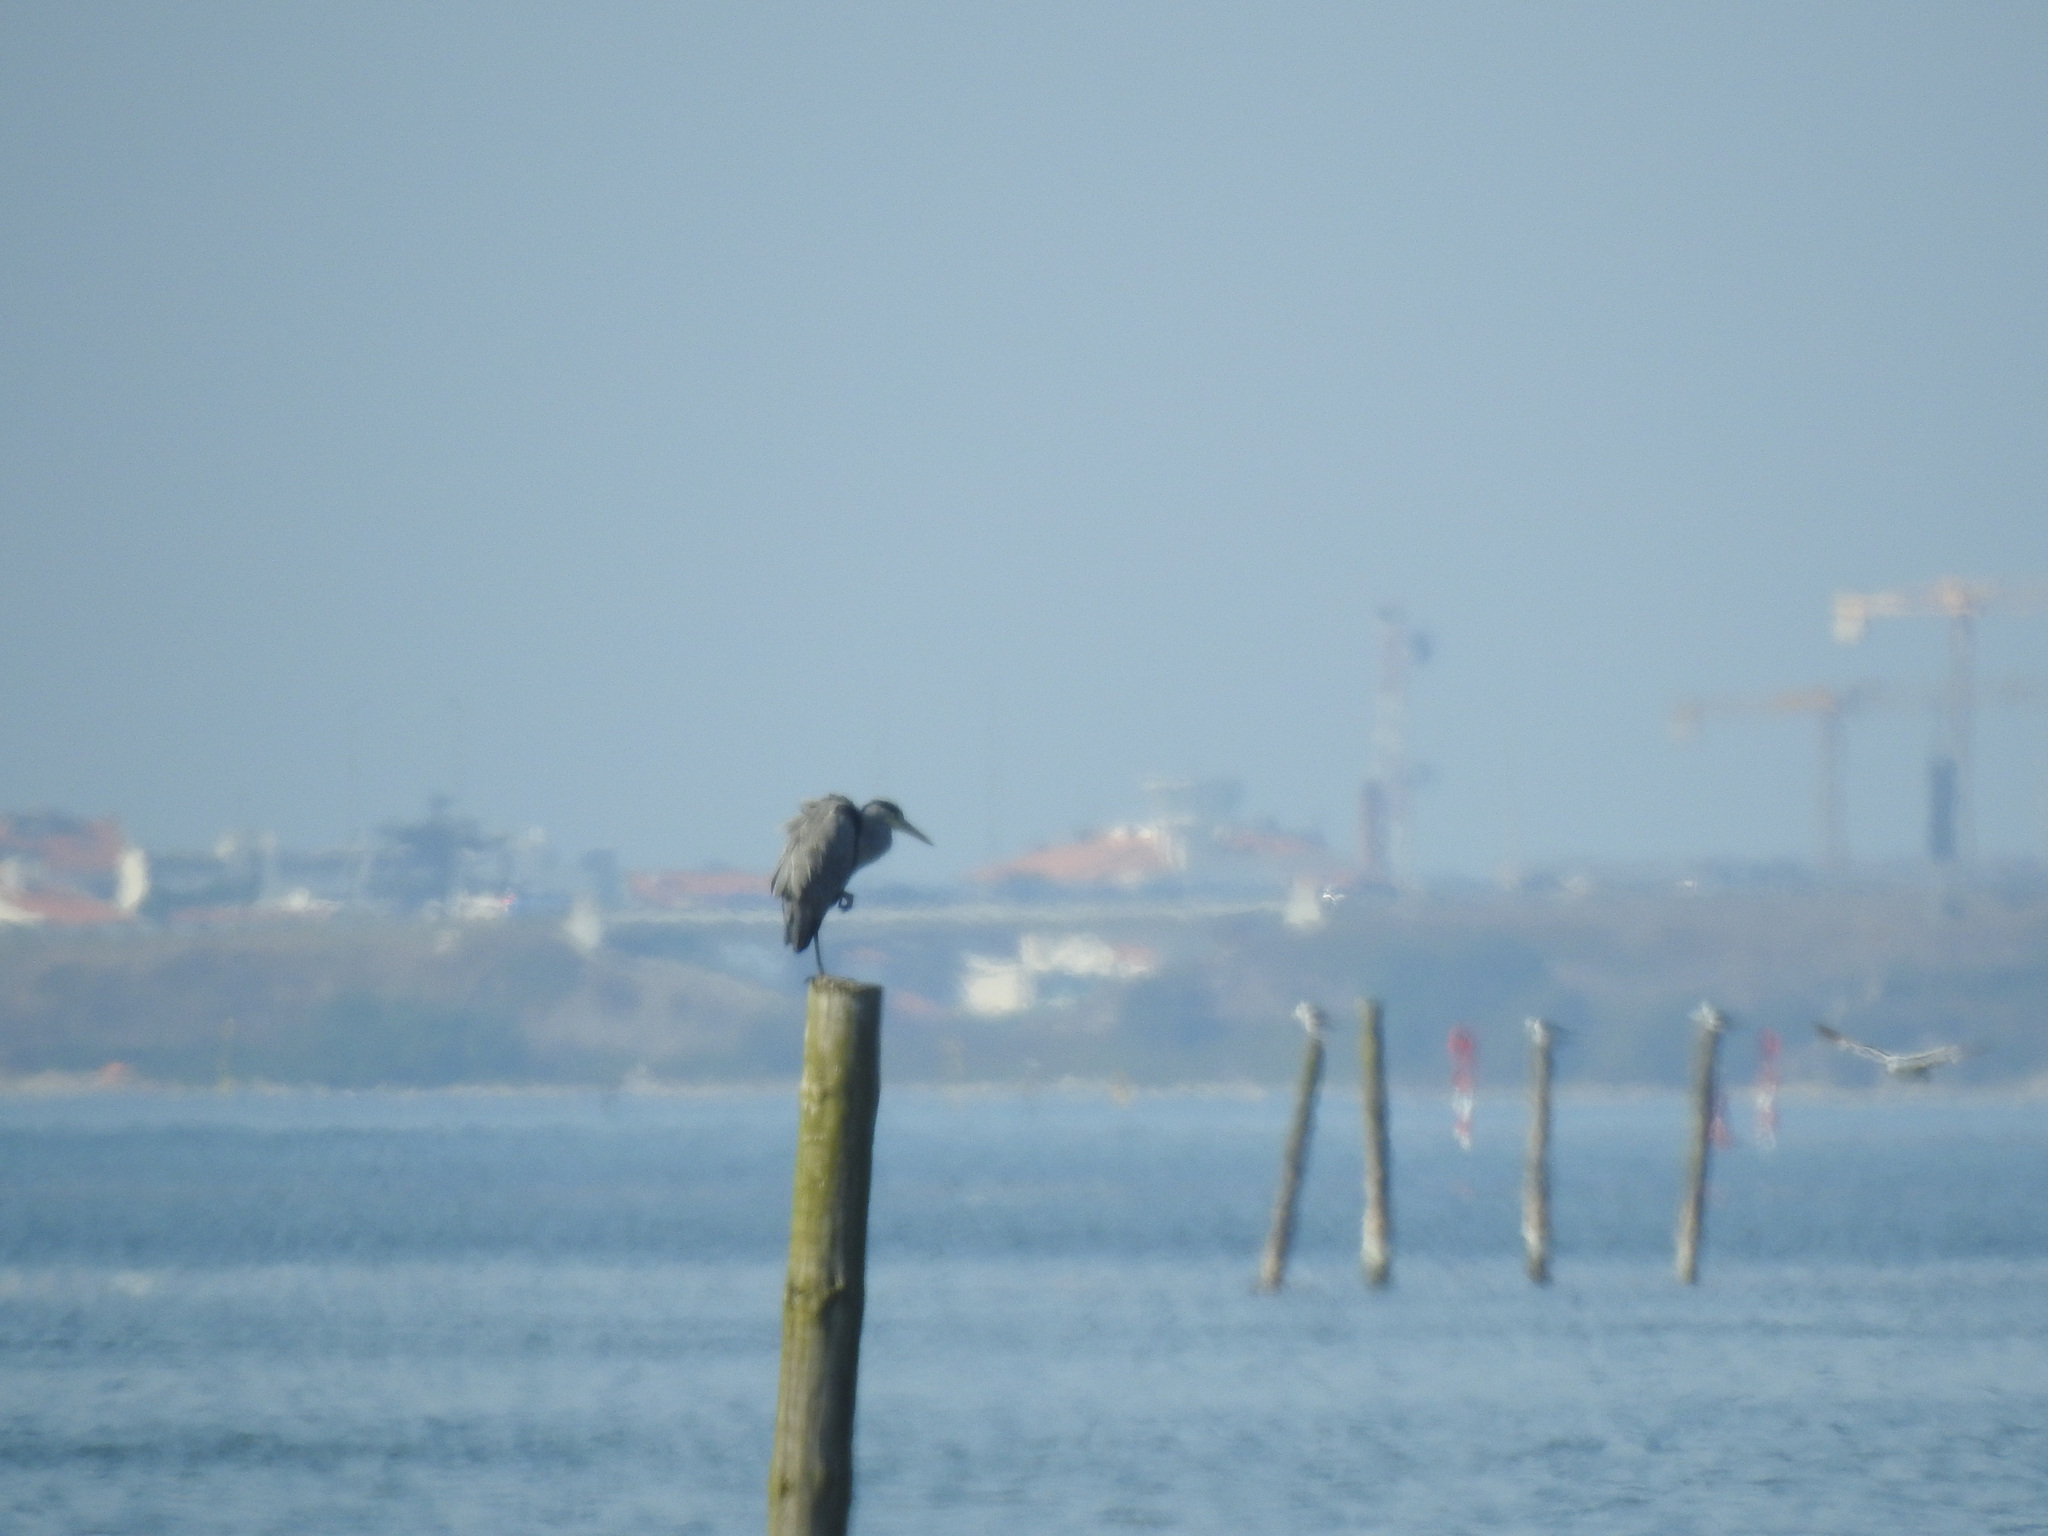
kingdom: Animalia
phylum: Chordata
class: Aves
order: Pelecaniformes
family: Ardeidae
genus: Ardea
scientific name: Ardea cinerea
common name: Grey heron
